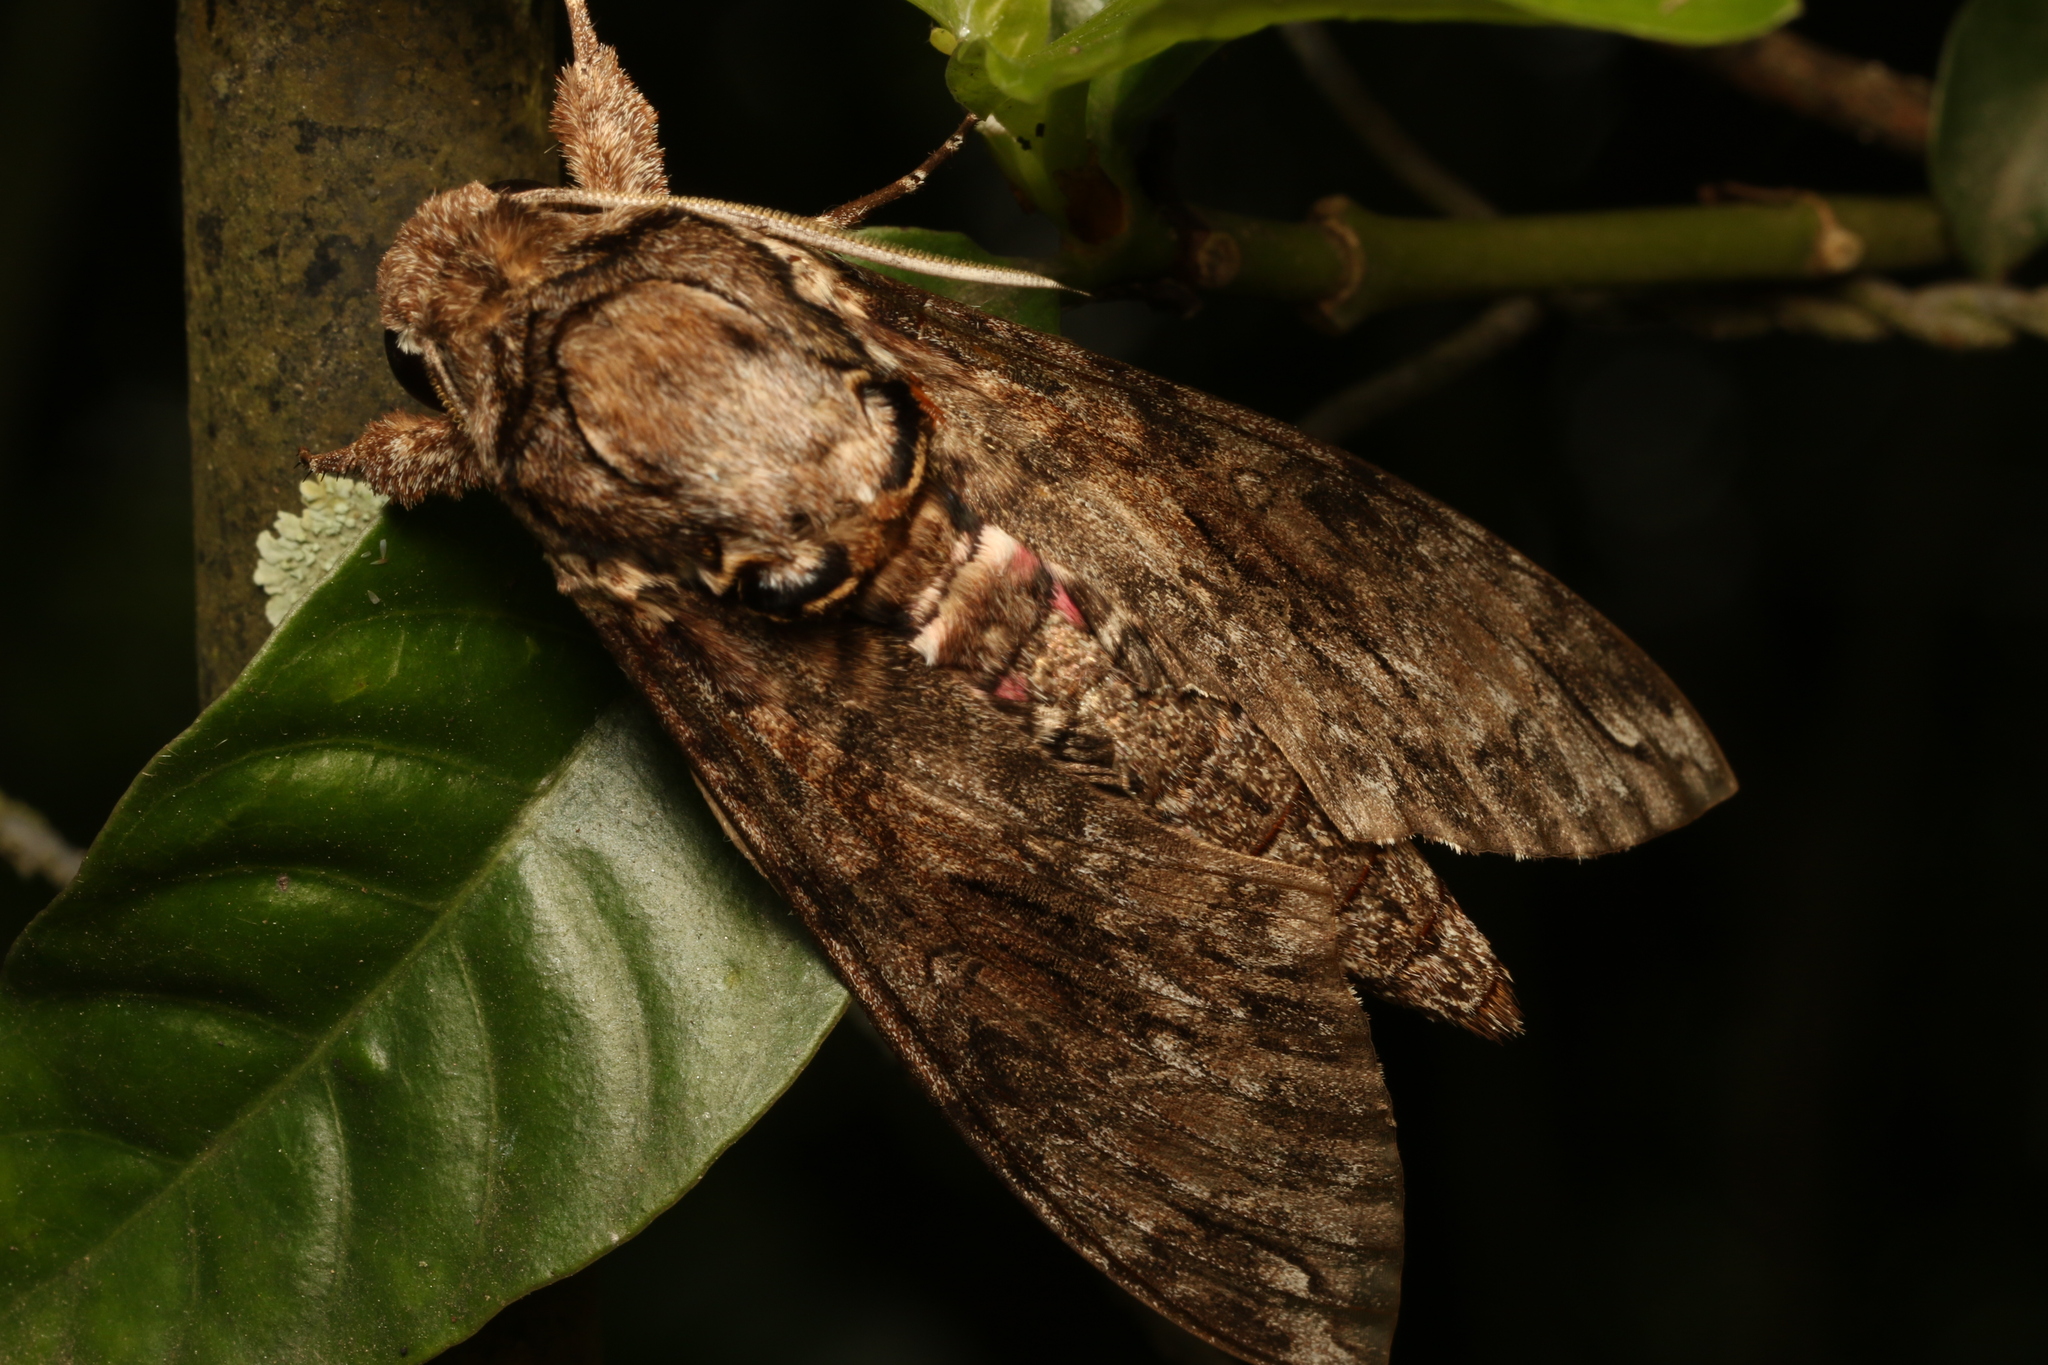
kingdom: Animalia
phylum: Arthropoda
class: Insecta
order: Lepidoptera
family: Sphingidae
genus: Agrius
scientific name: Agrius cingulata
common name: Pink-spotted hawkmoth
